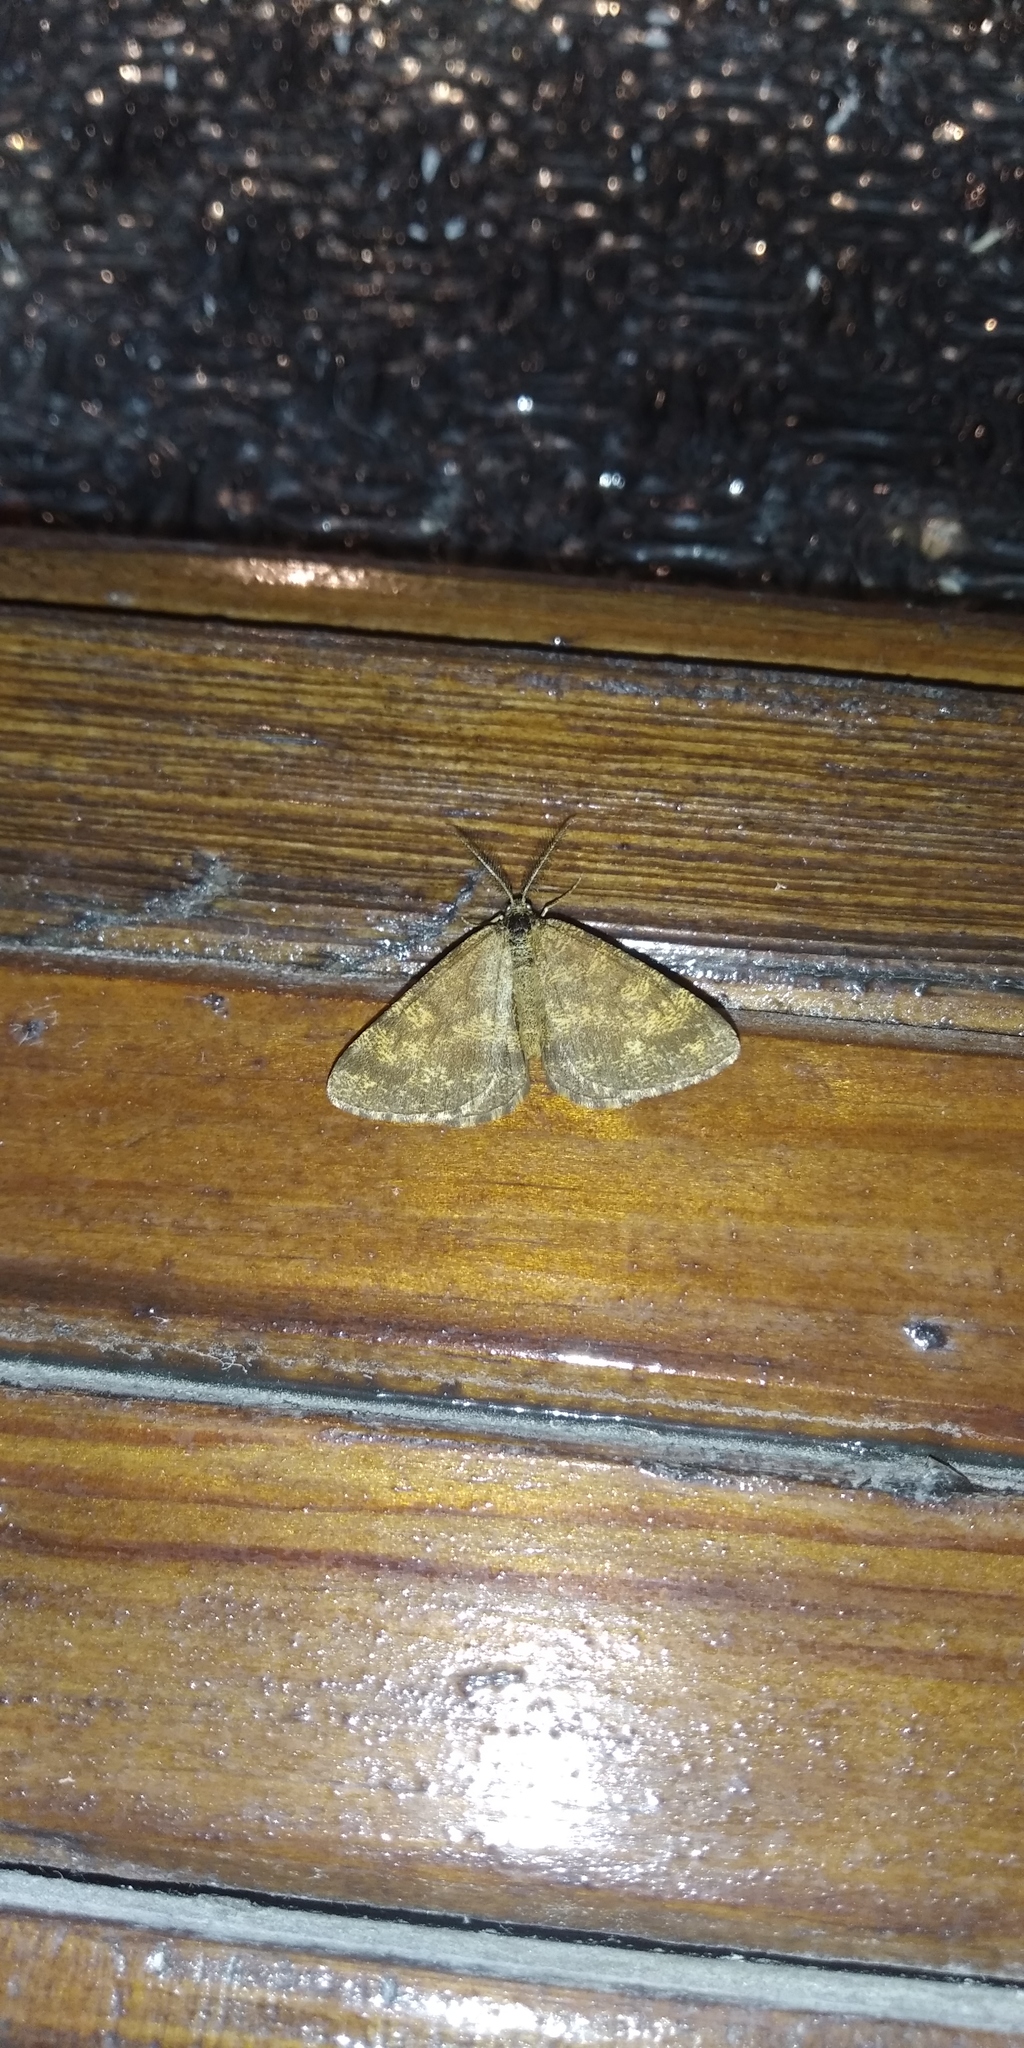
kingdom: Animalia
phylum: Arthropoda
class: Insecta
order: Lepidoptera
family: Geometridae
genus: Ematurga
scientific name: Ematurga atomaria
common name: Common heath
